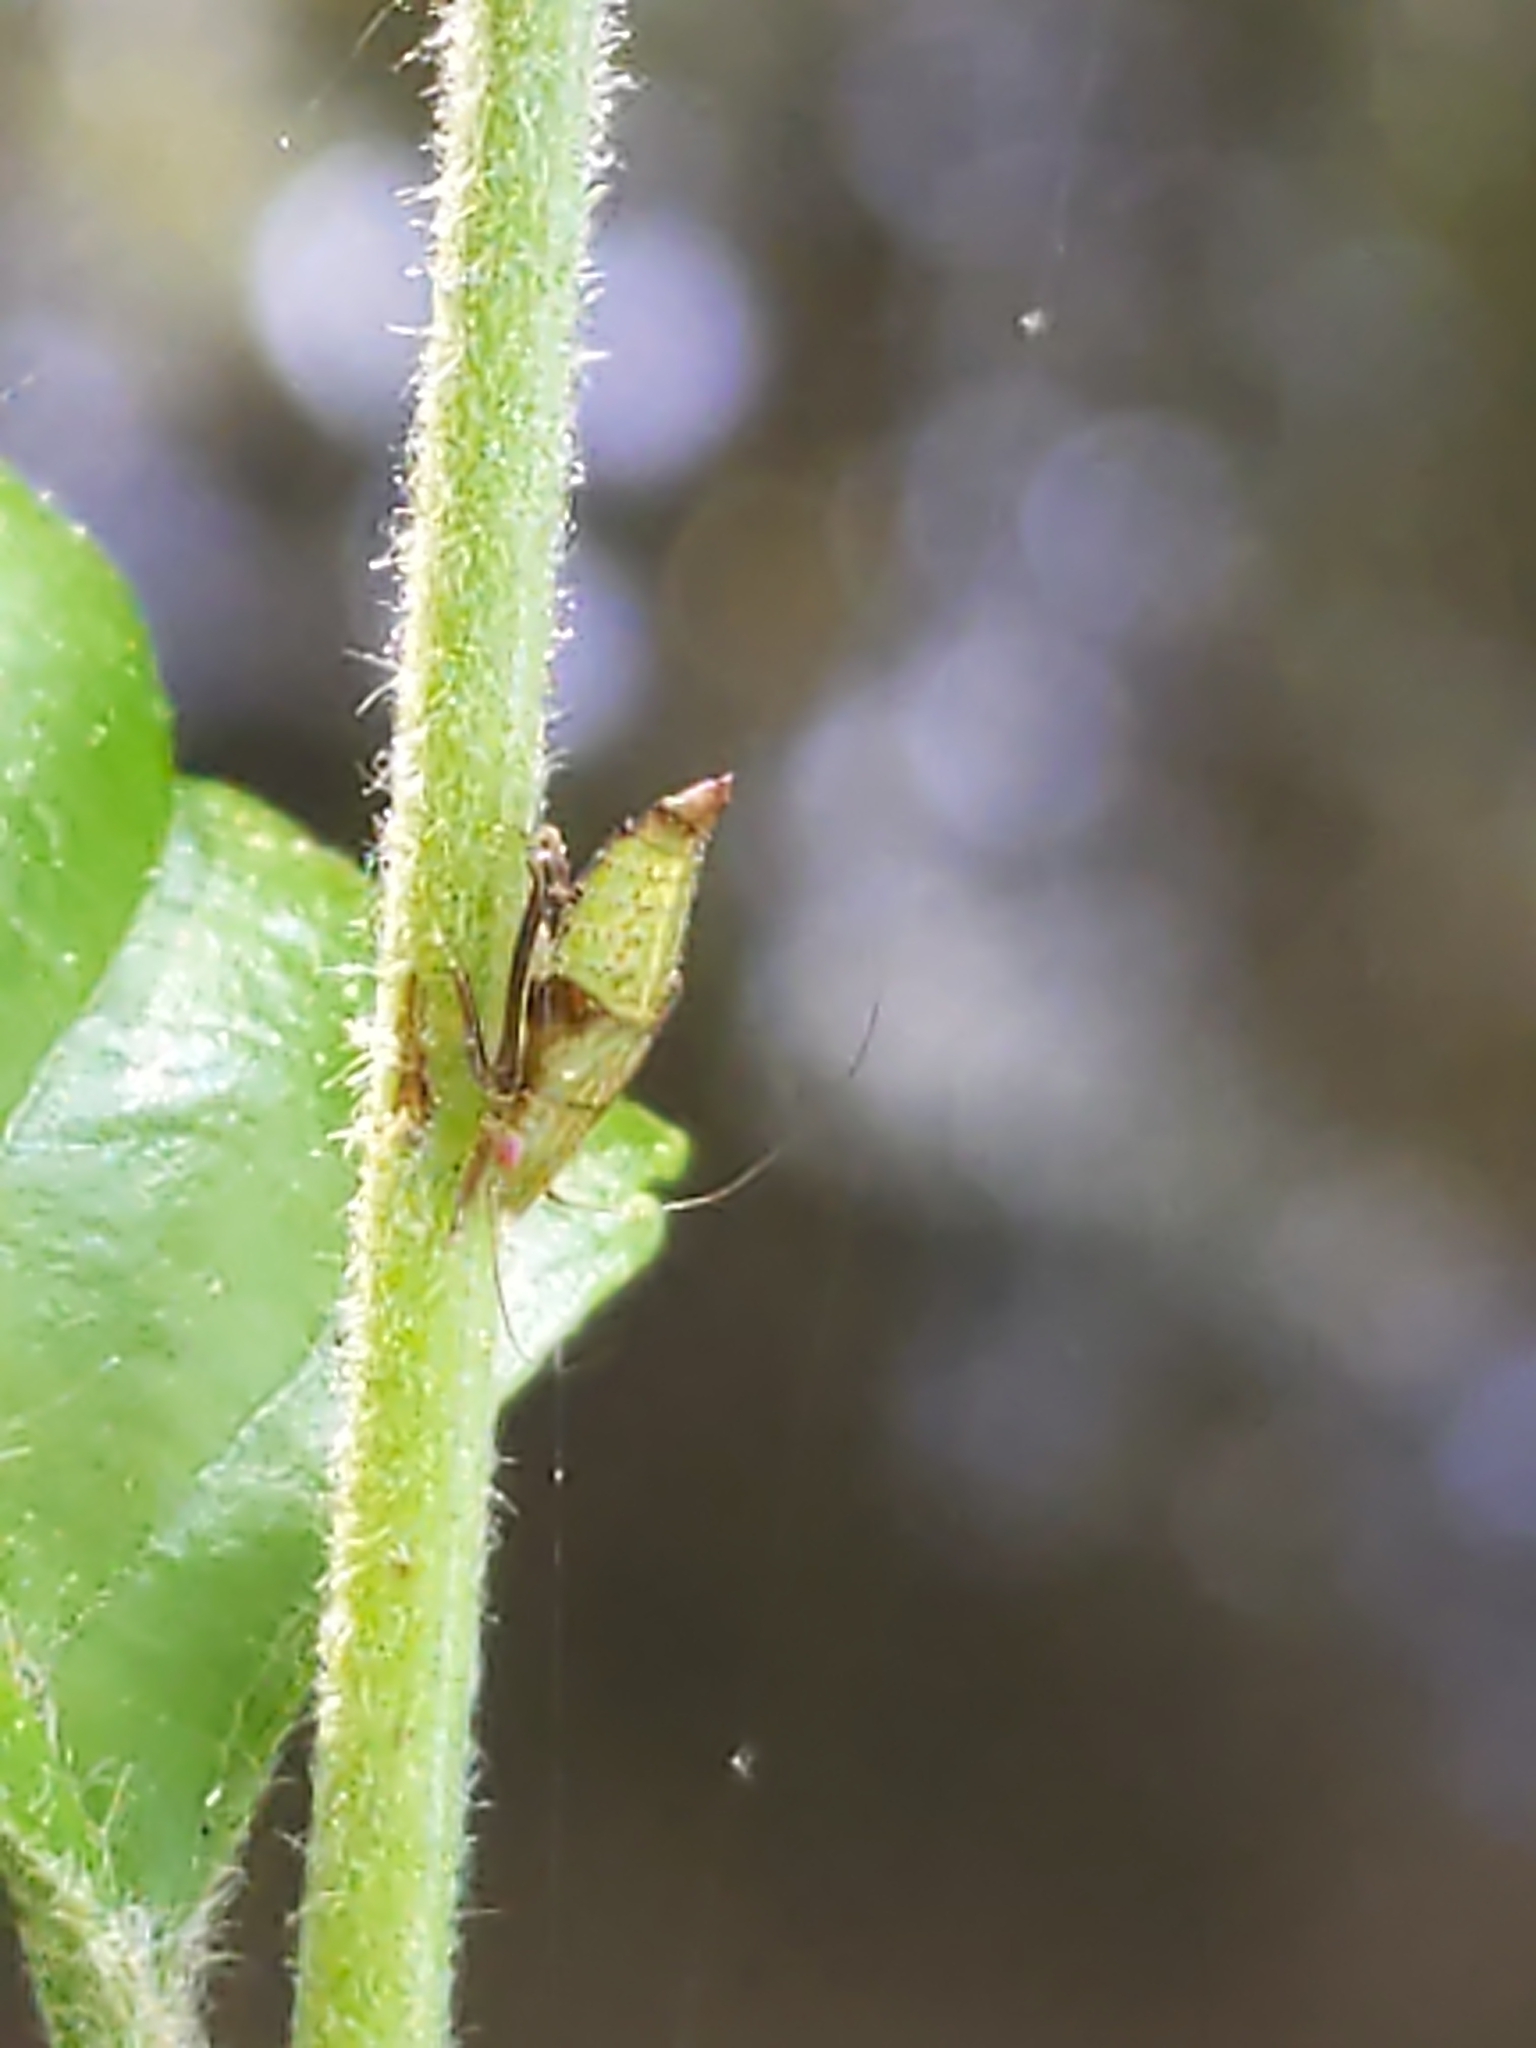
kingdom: Animalia
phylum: Arthropoda
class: Insecta
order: Hemiptera
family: Cicadellidae
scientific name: Cicadellidae
